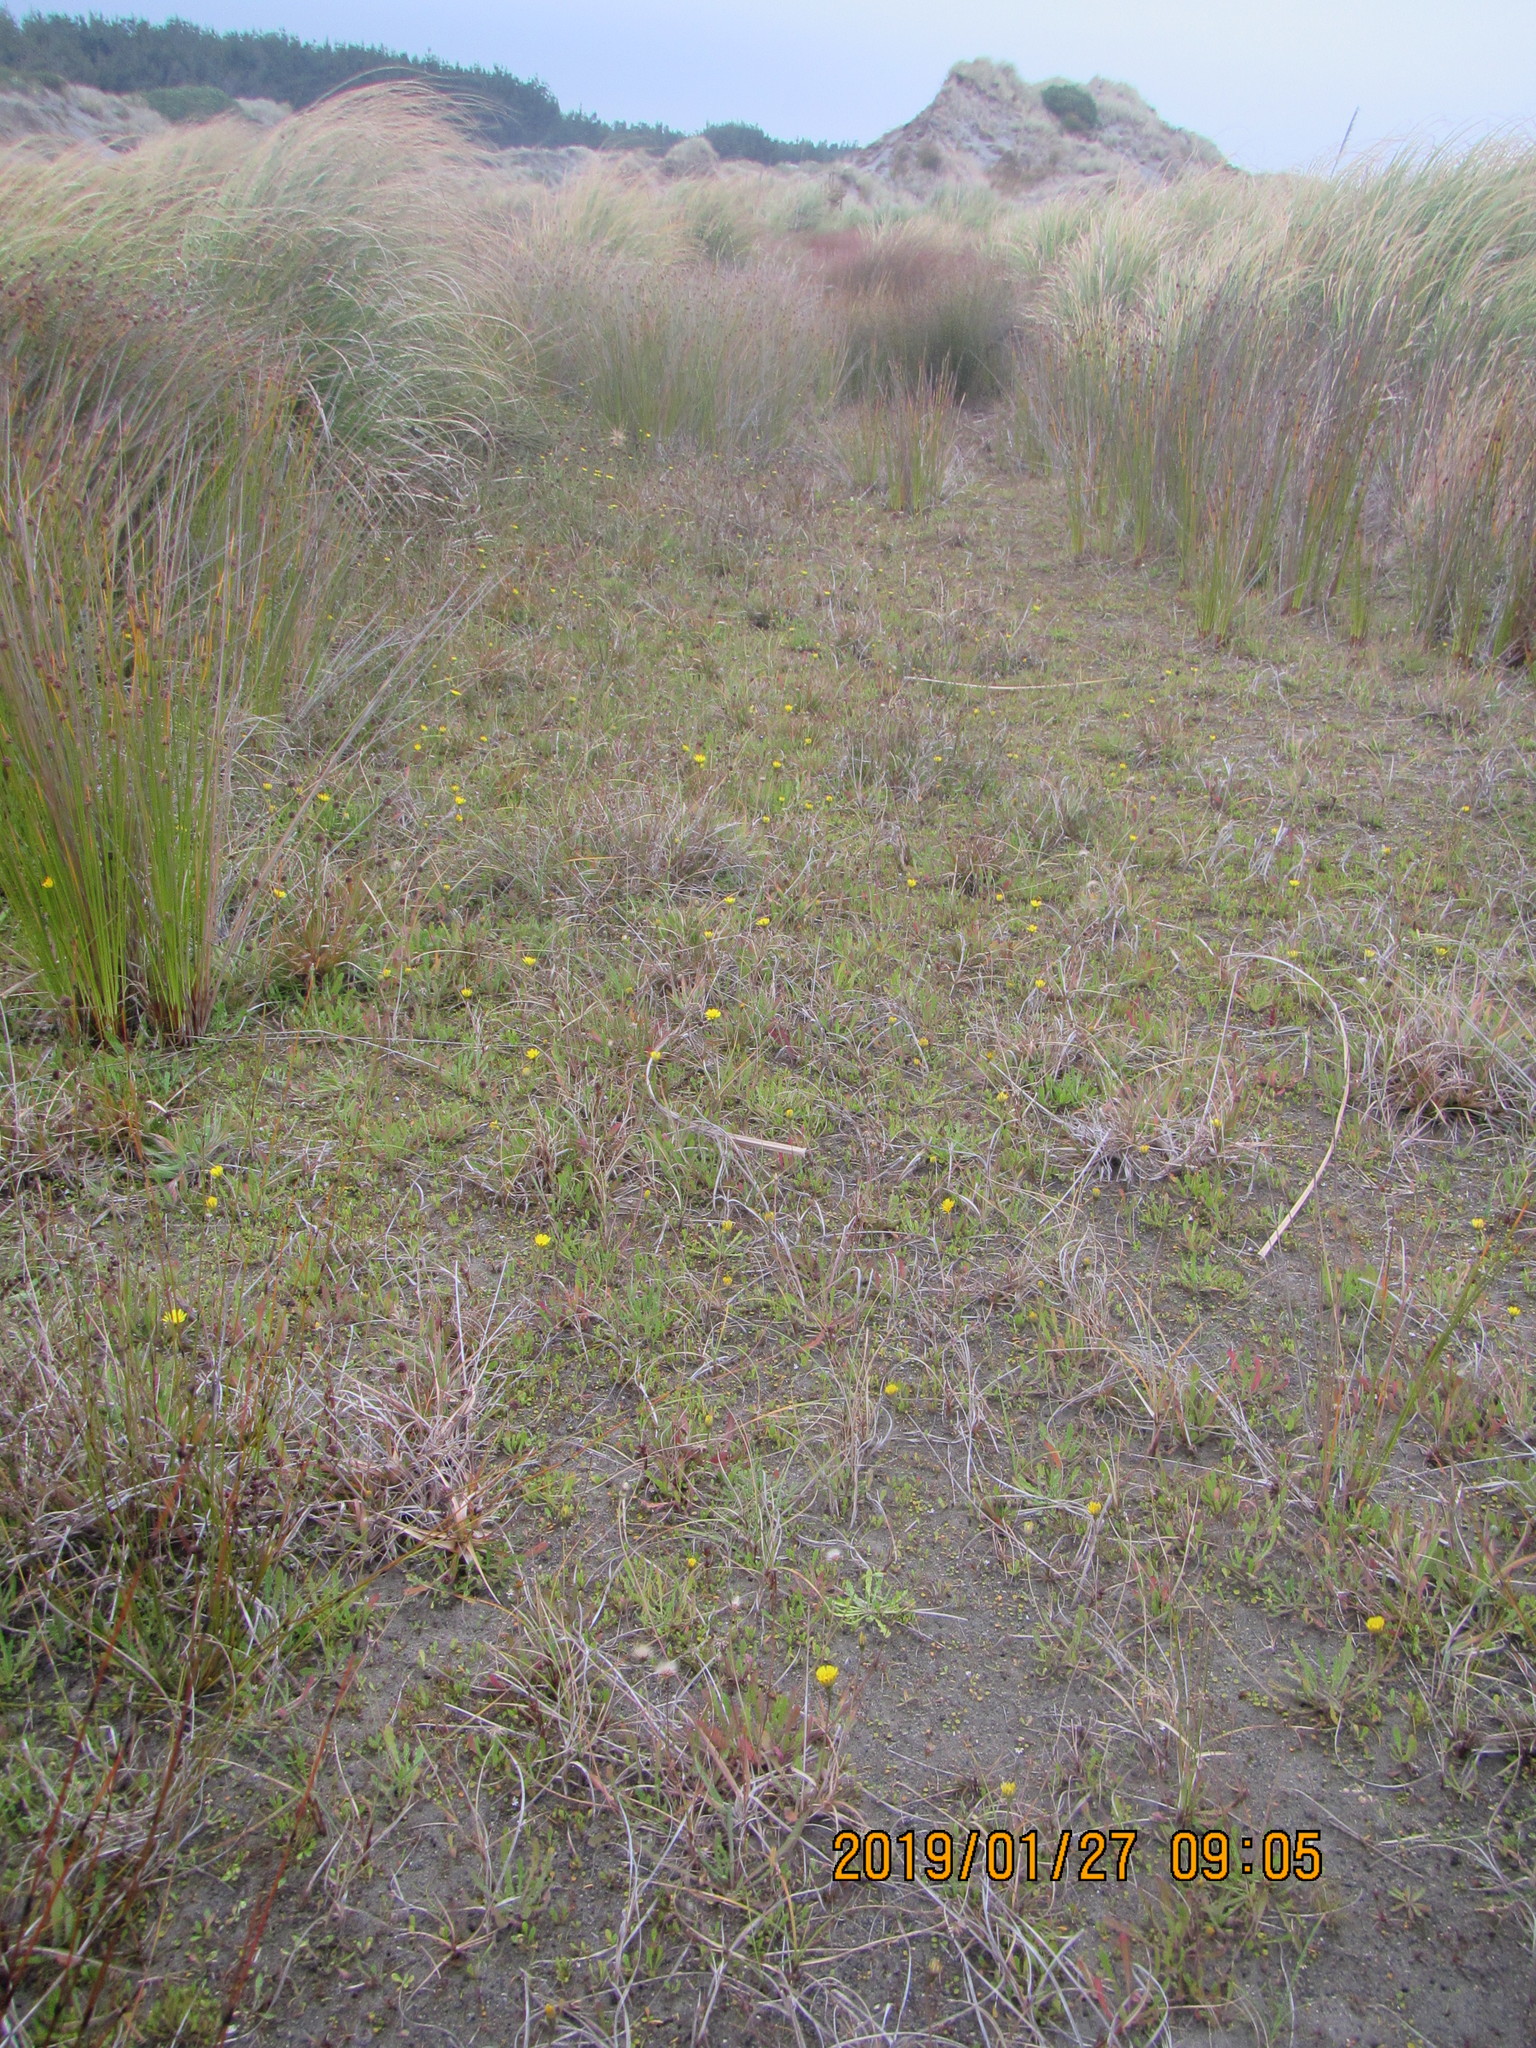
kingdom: Plantae
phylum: Tracheophyta
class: Magnoliopsida
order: Asterales
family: Asteraceae
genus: Hypochaeris
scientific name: Hypochaeris radicata
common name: Flatweed
